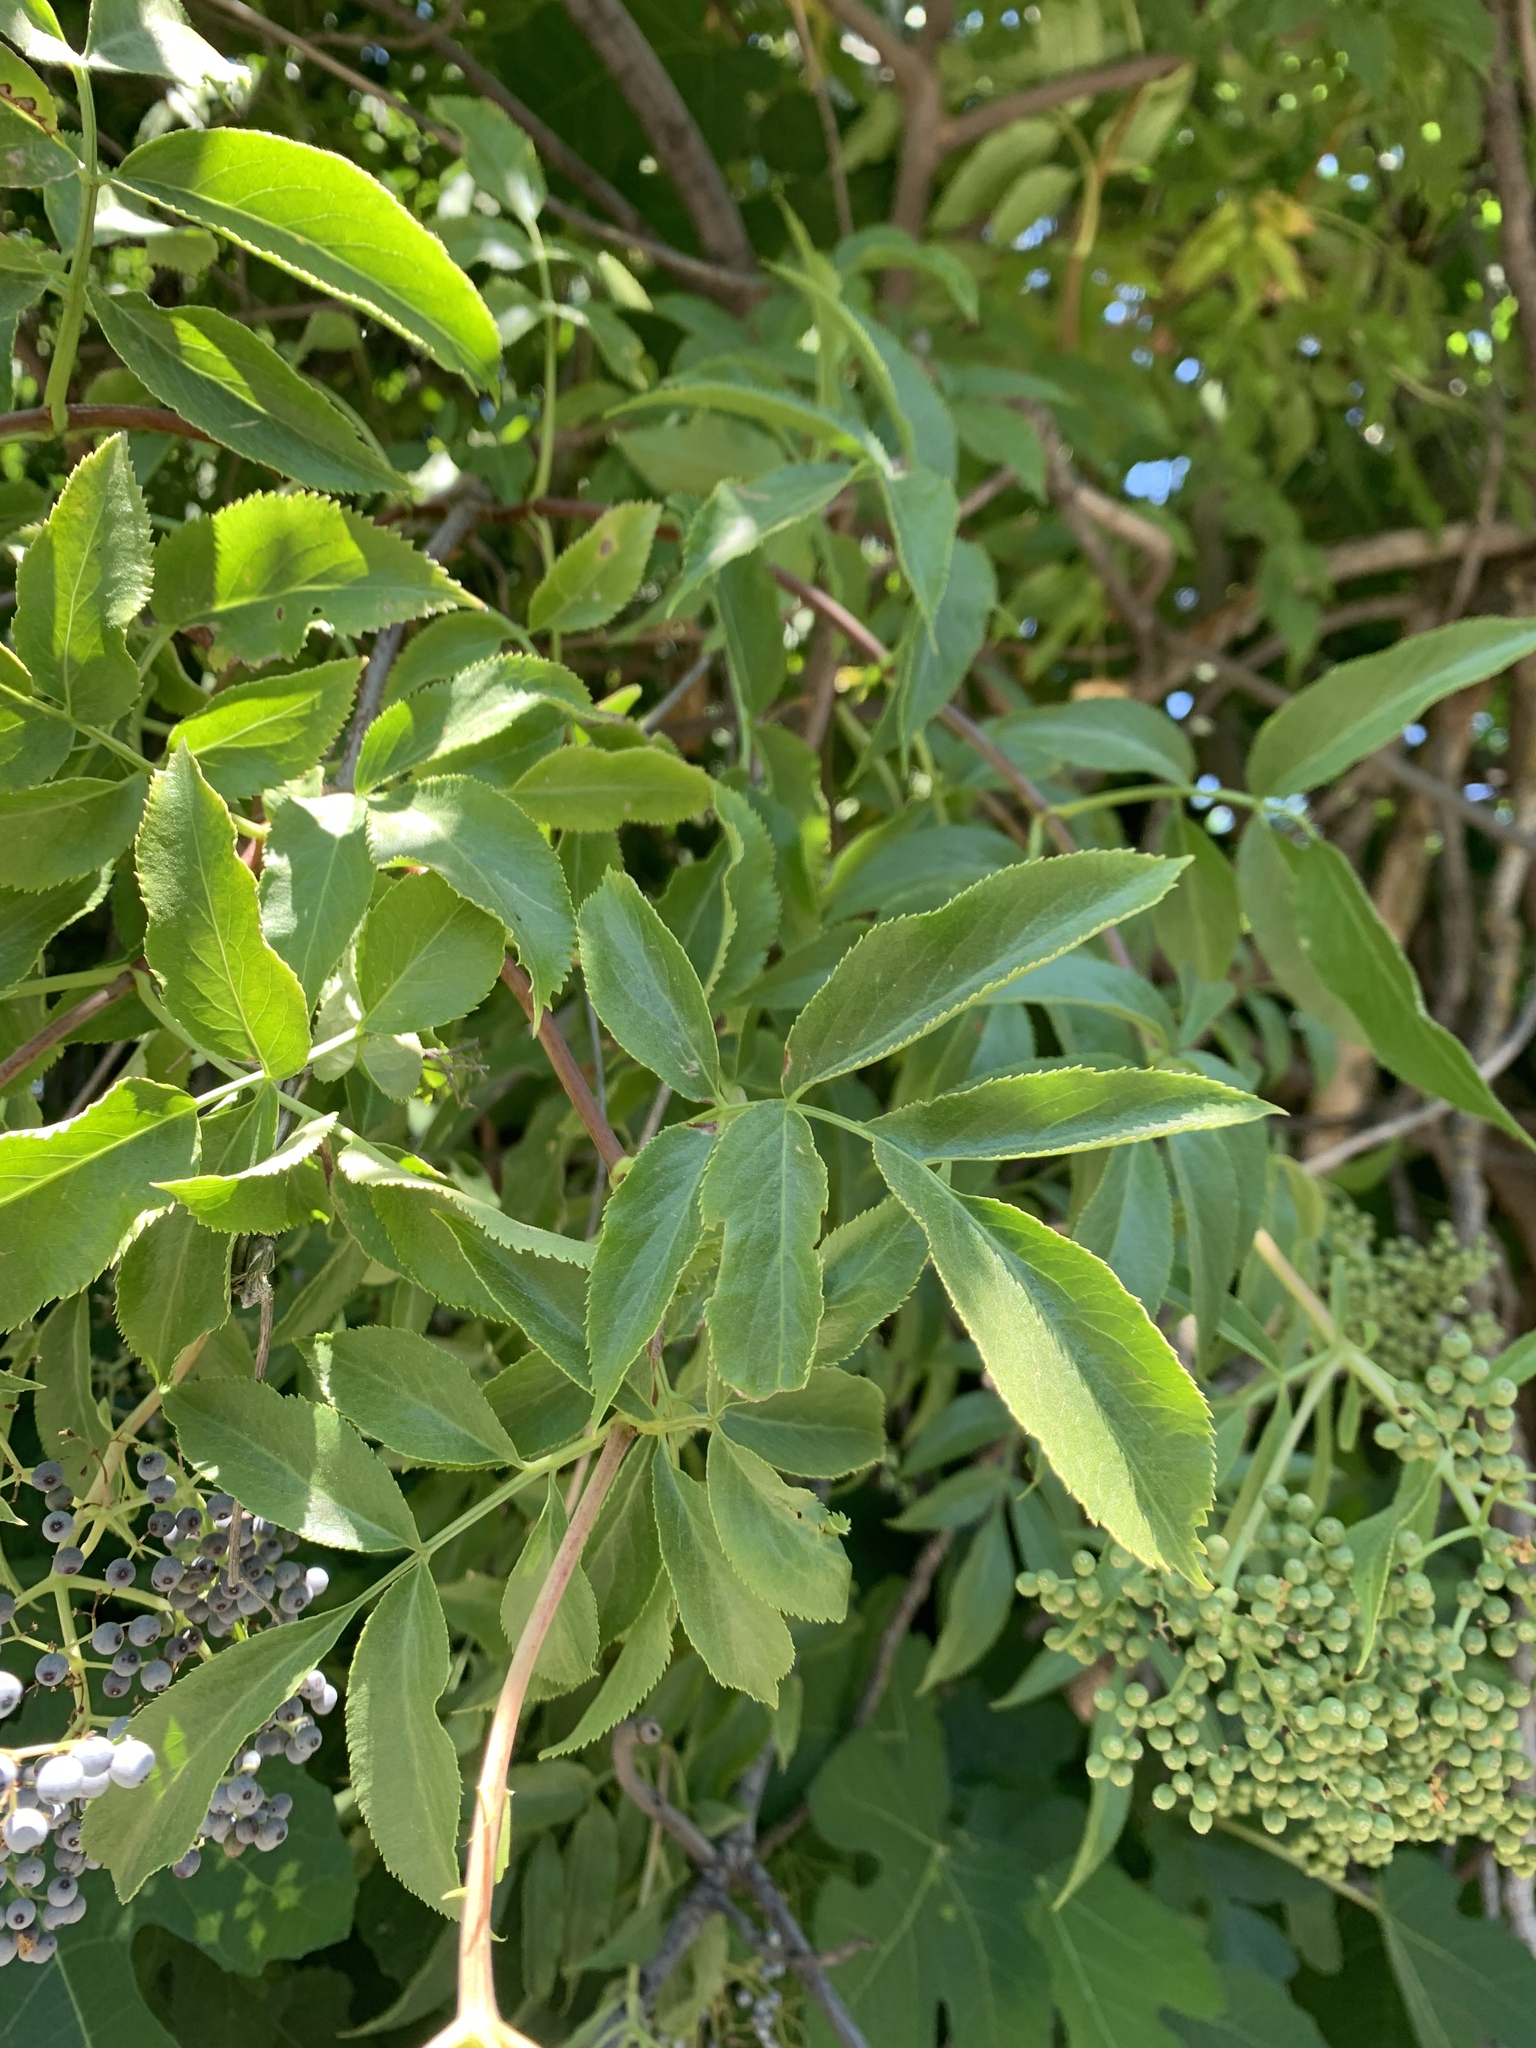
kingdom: Plantae
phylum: Tracheophyta
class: Magnoliopsida
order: Dipsacales
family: Viburnaceae
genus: Sambucus
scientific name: Sambucus cerulea
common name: Blue elder
